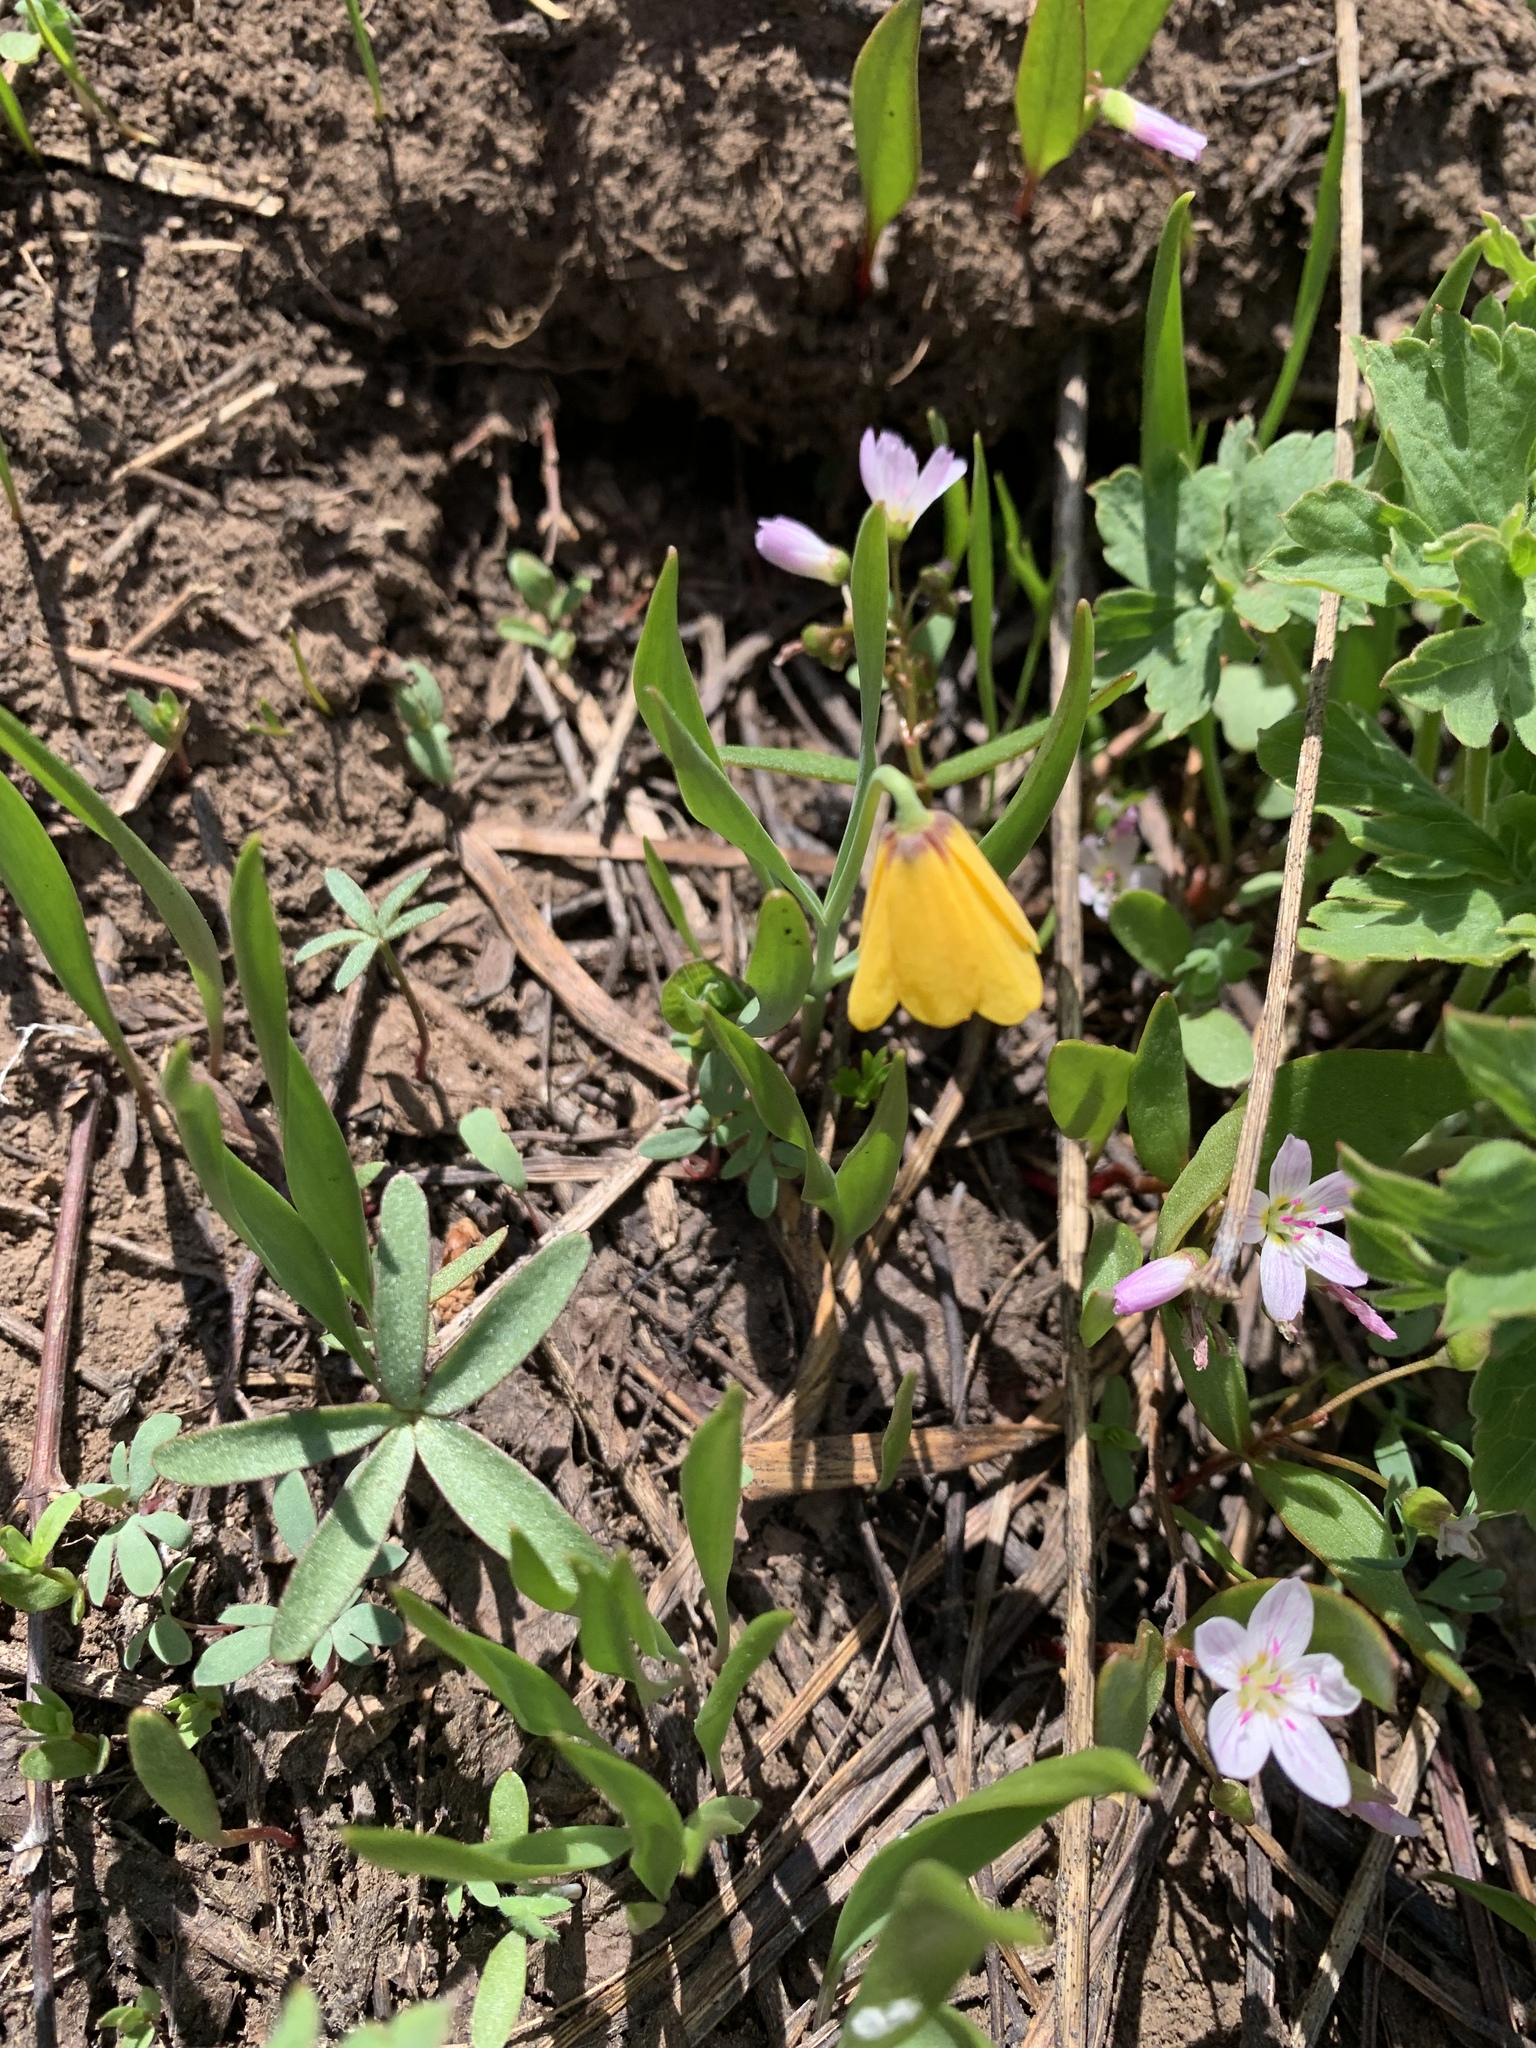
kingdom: Plantae
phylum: Tracheophyta
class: Liliopsida
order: Liliales
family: Liliaceae
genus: Fritillaria
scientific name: Fritillaria pudica
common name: Yellow fritillary
